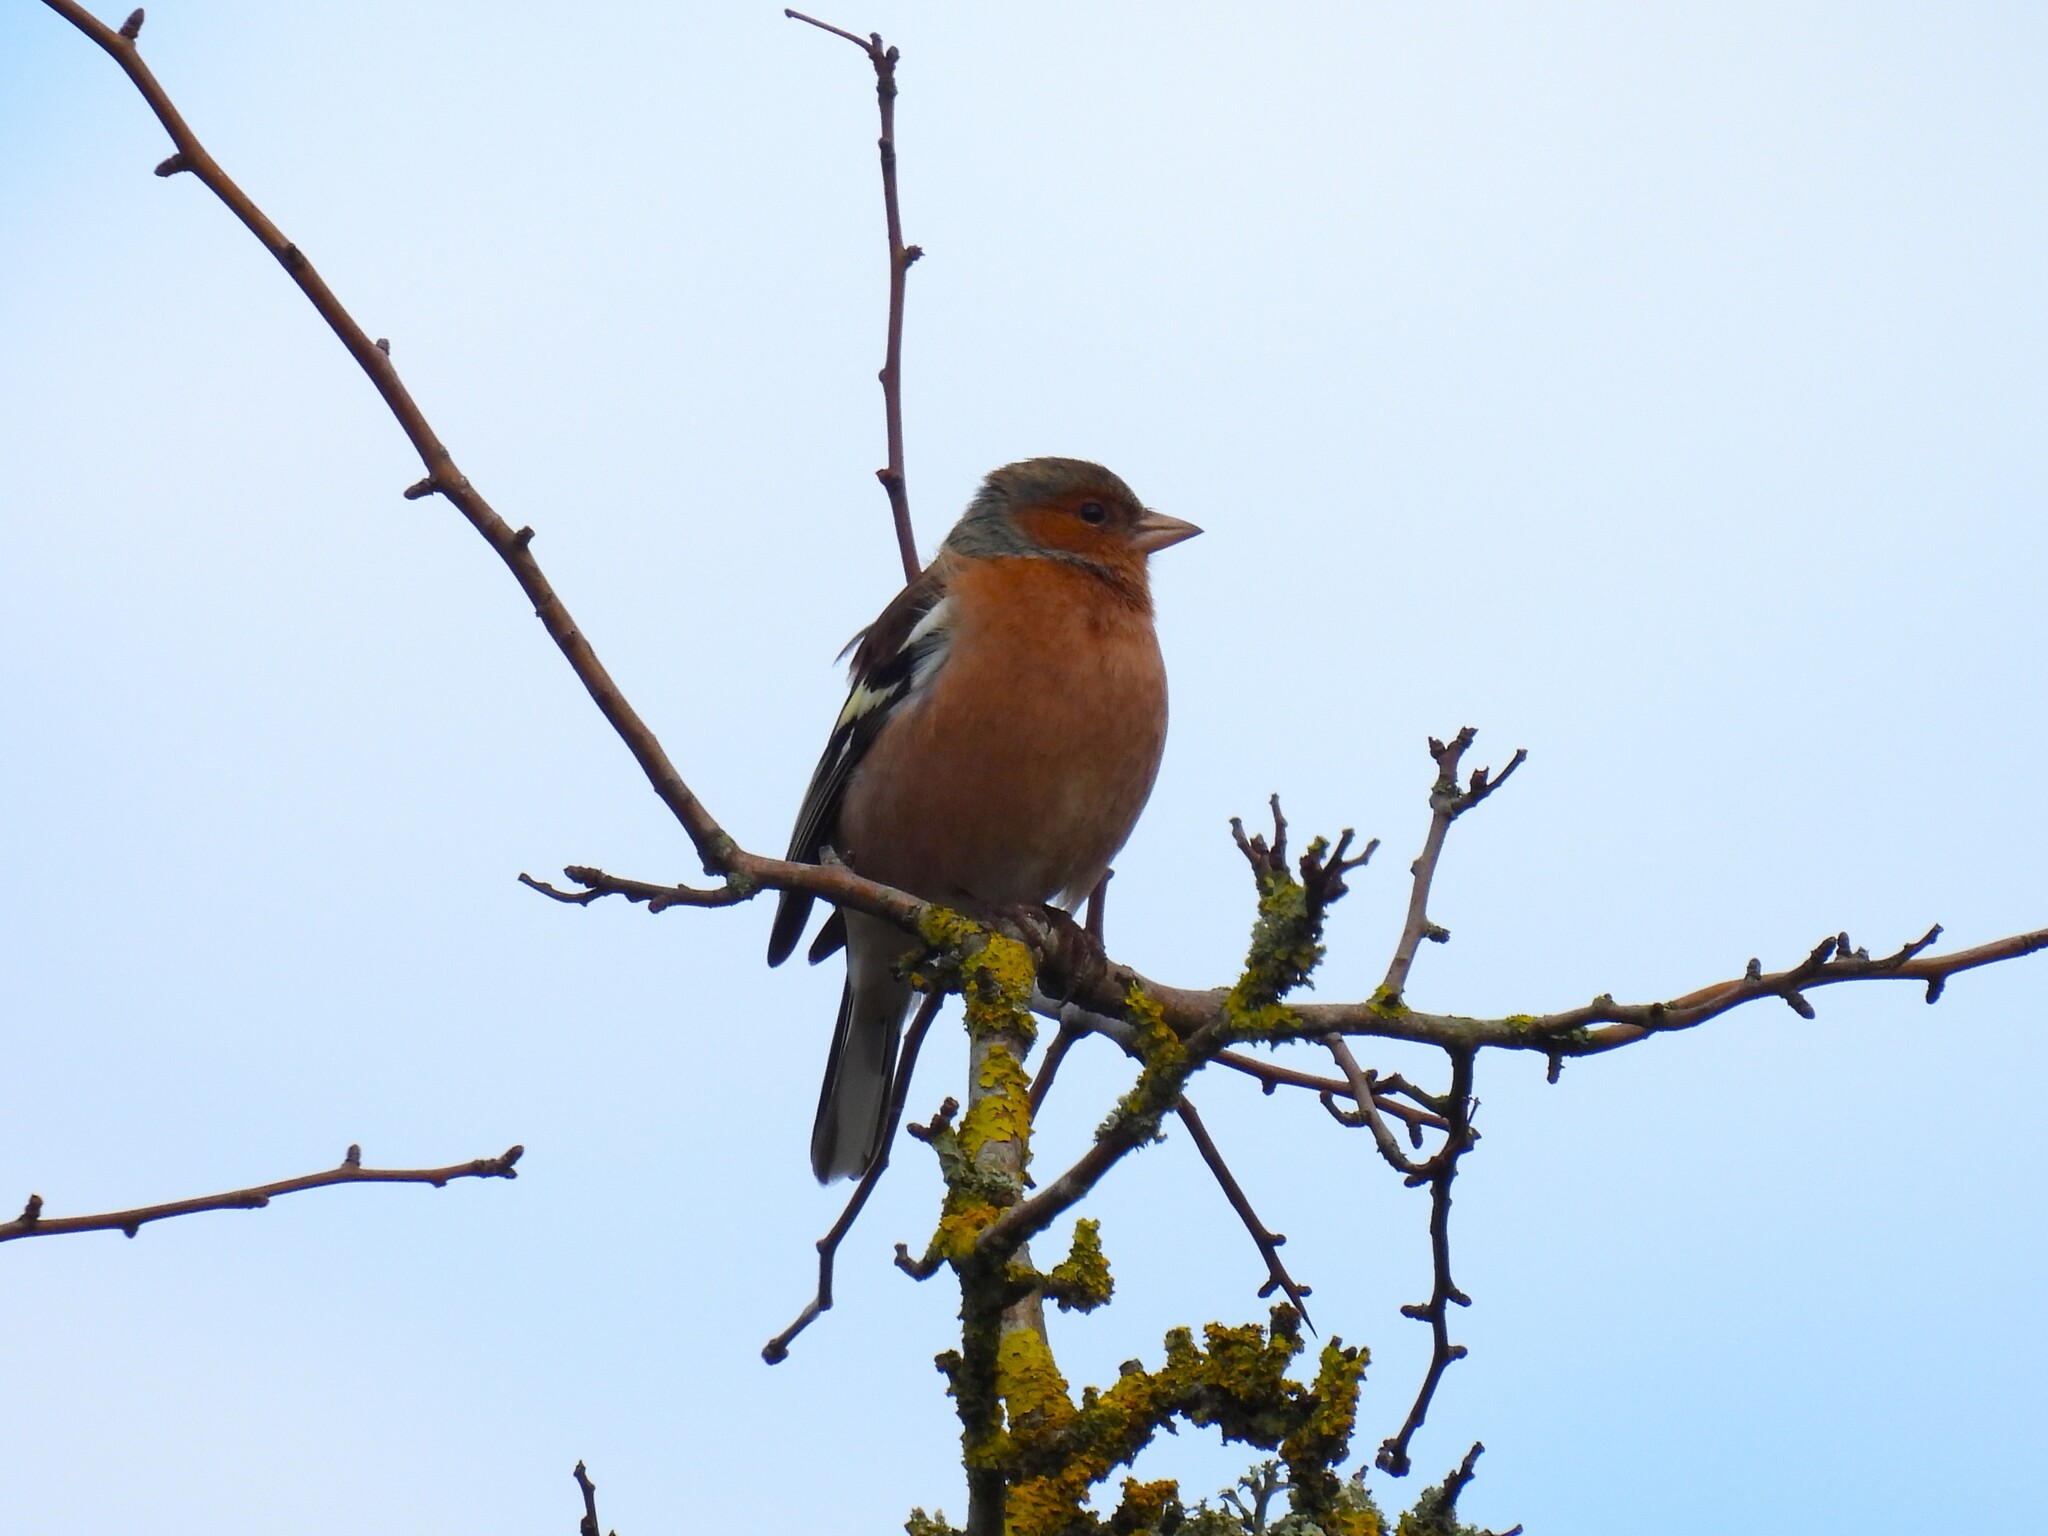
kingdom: Animalia
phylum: Chordata
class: Aves
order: Passeriformes
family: Fringillidae
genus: Fringilla
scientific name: Fringilla coelebs
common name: Common chaffinch
